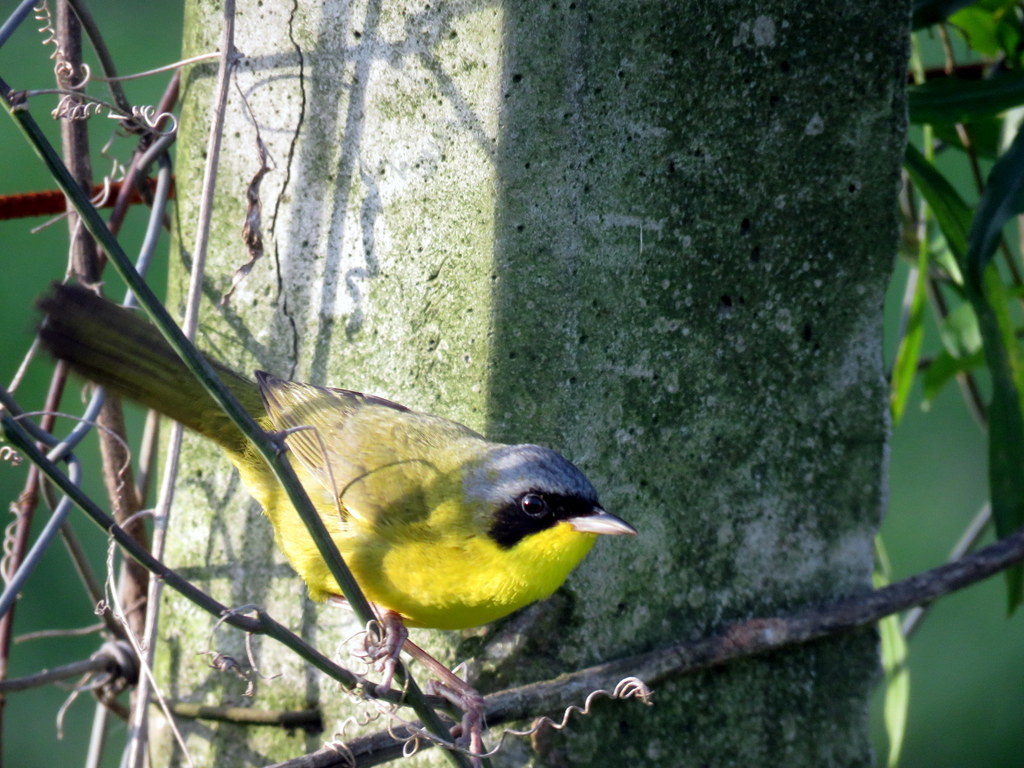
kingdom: Animalia
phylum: Chordata
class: Aves
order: Passeriformes
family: Parulidae
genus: Geothlypis
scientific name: Geothlypis velata
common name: Southern yellowthroat
